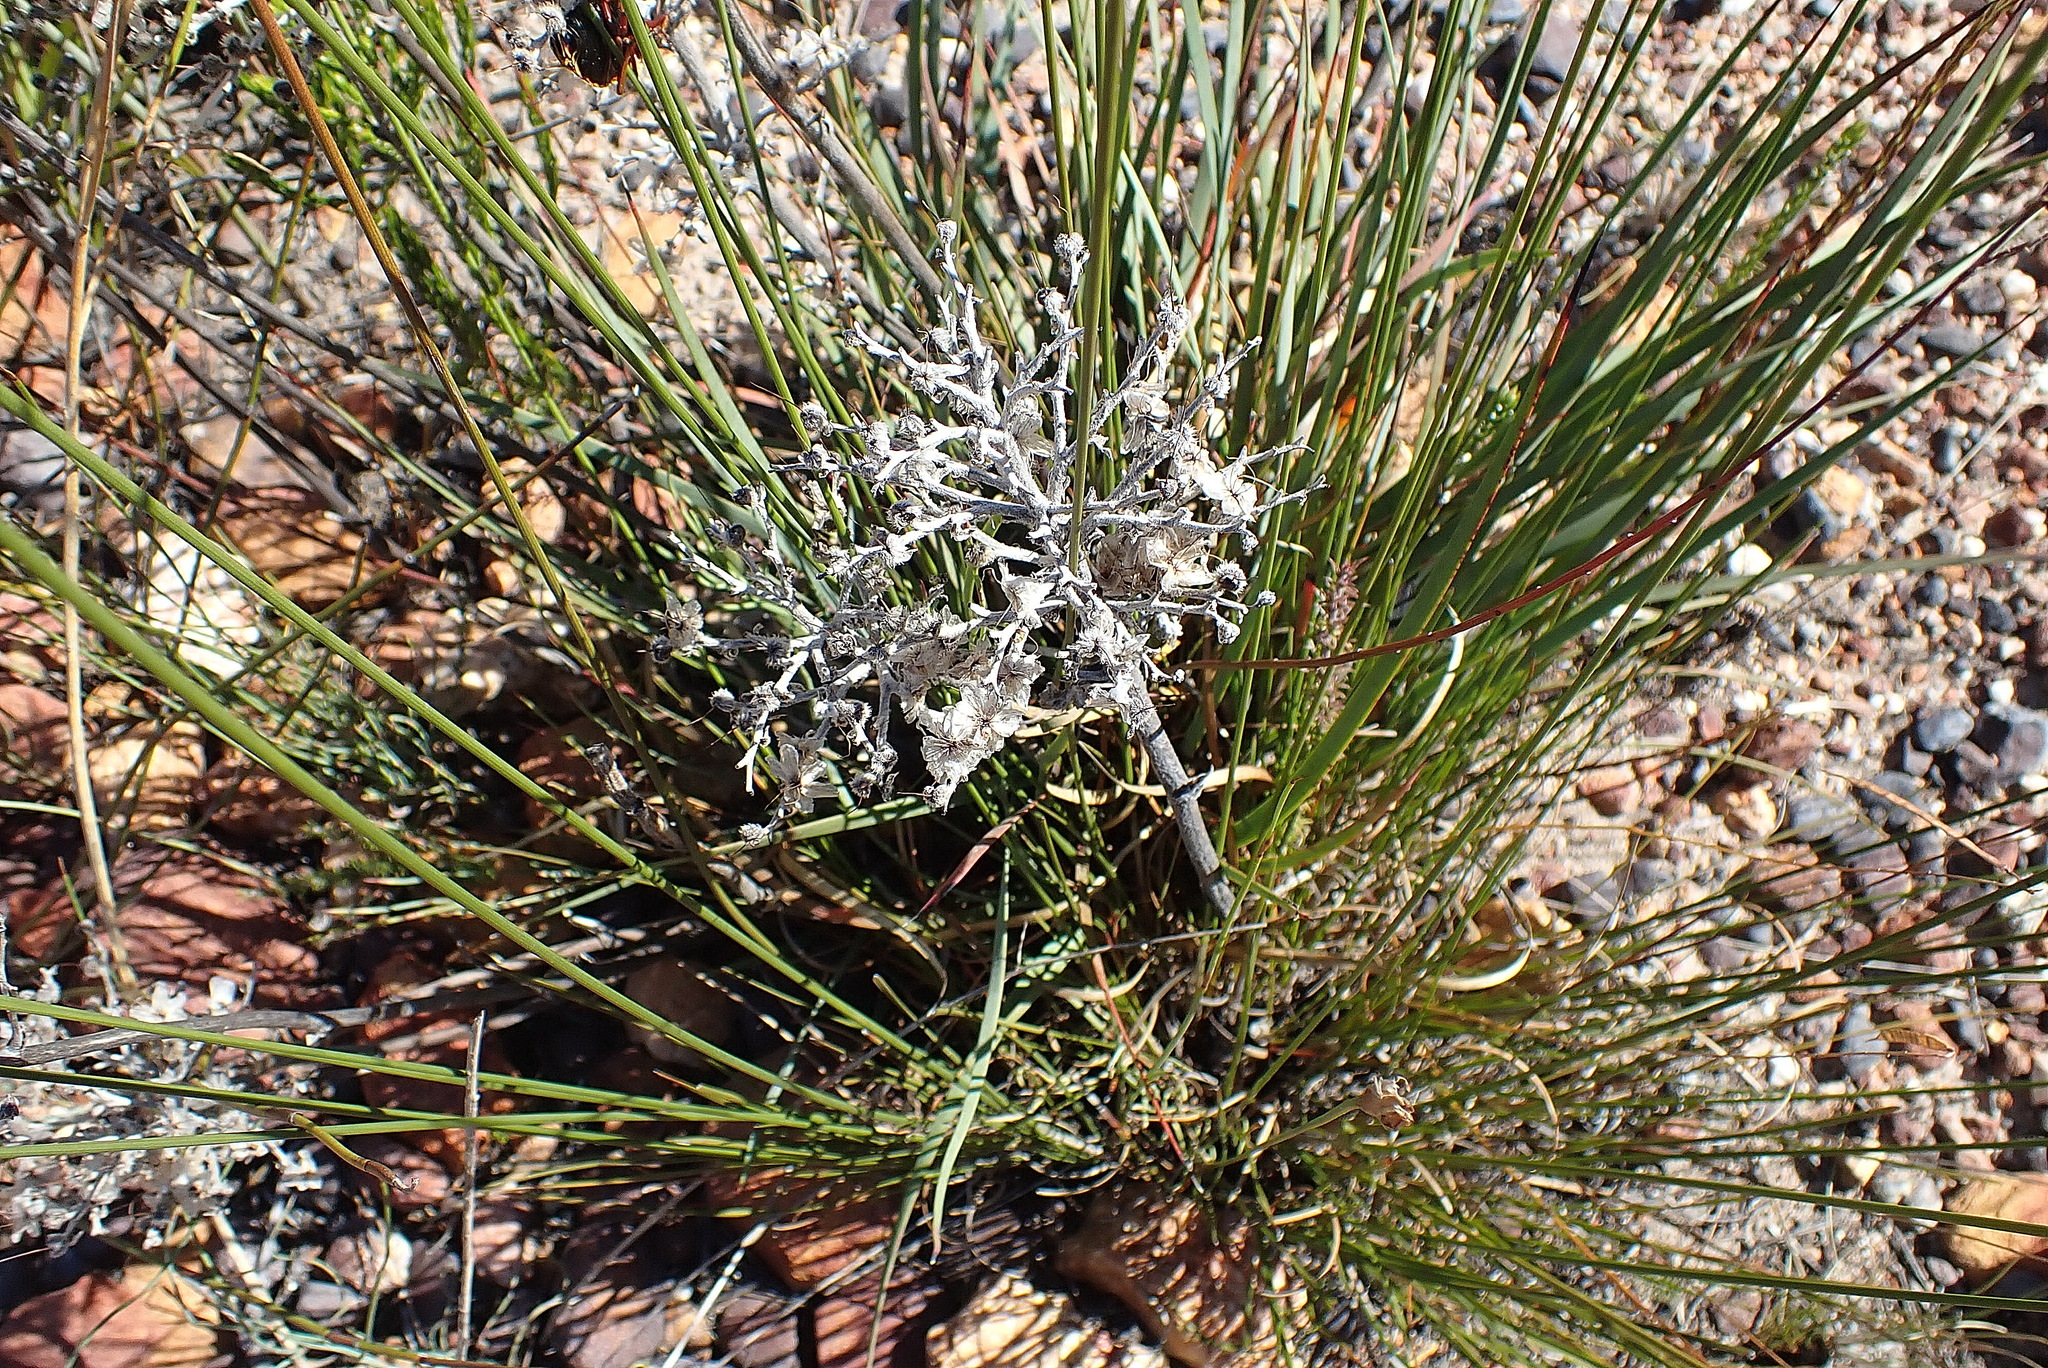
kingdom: Plantae
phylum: Tracheophyta
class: Liliopsida
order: Commelinales
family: Haemodoraceae
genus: Dilatris
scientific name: Dilatris ixioides
